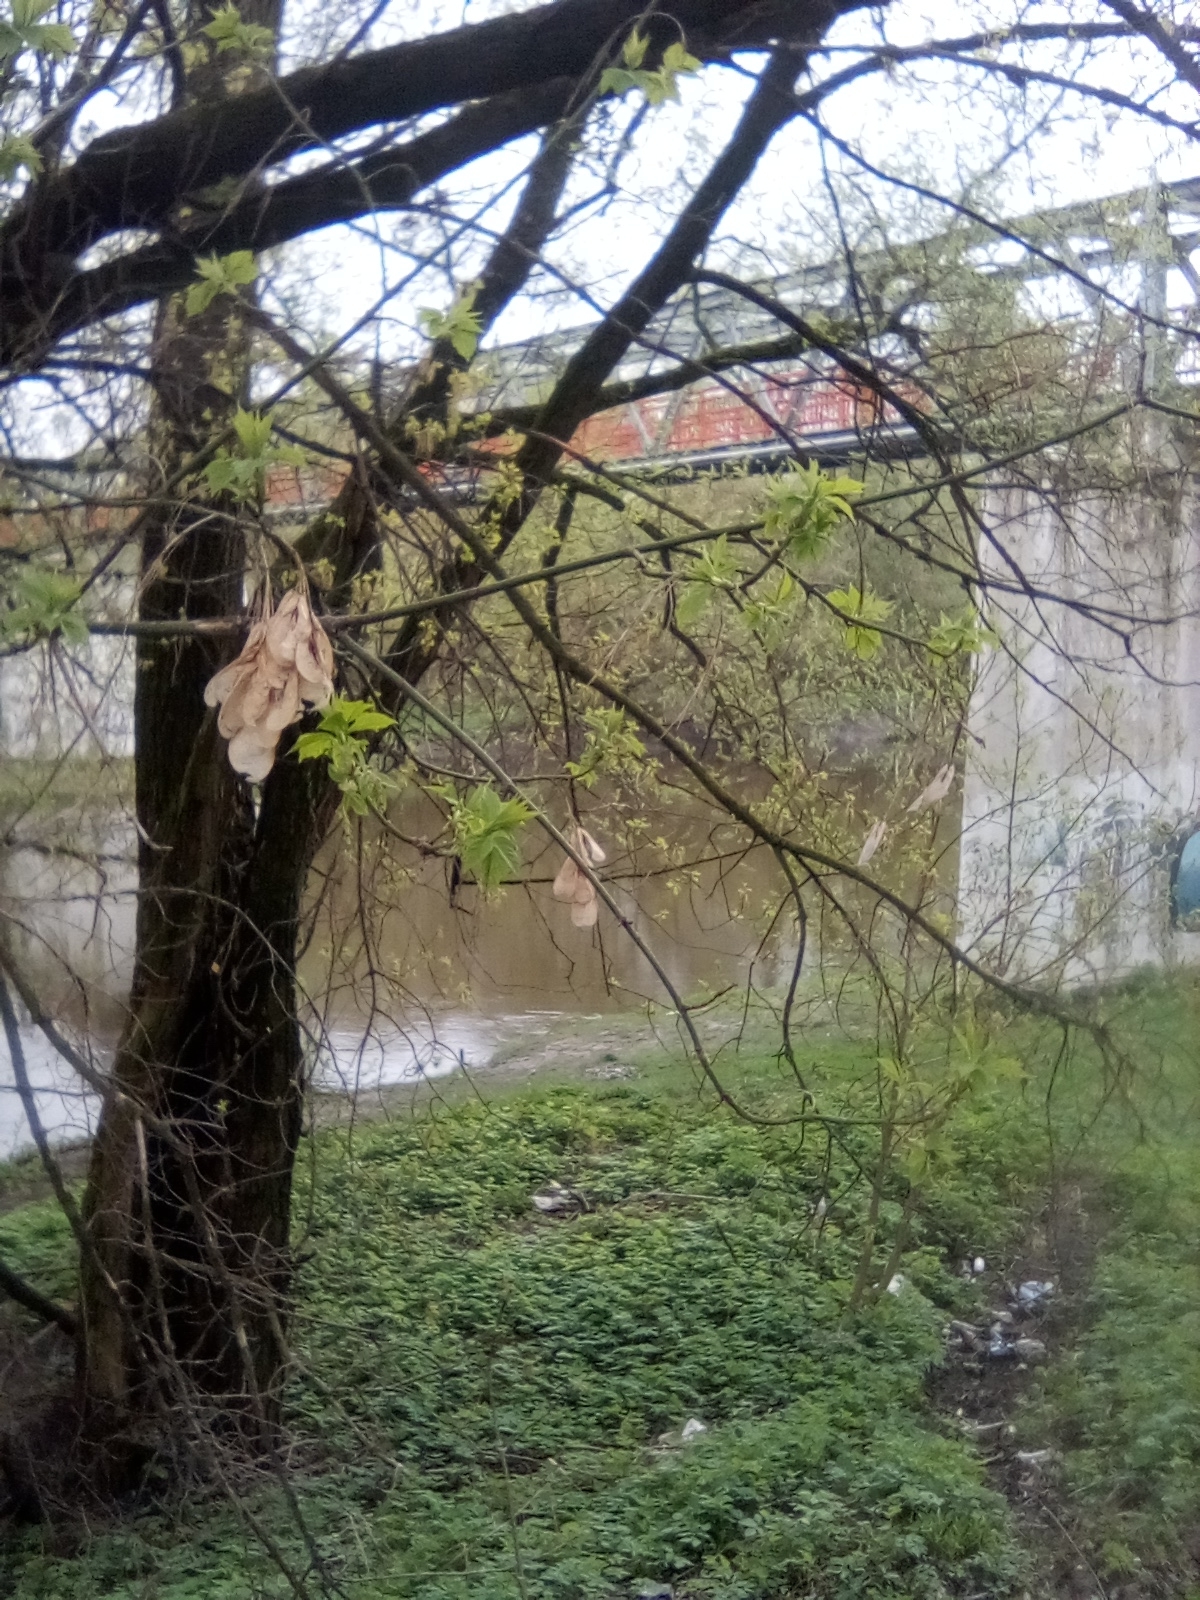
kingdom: Plantae
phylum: Tracheophyta
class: Magnoliopsida
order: Sapindales
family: Sapindaceae
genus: Acer
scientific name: Acer negundo
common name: Ashleaf maple
